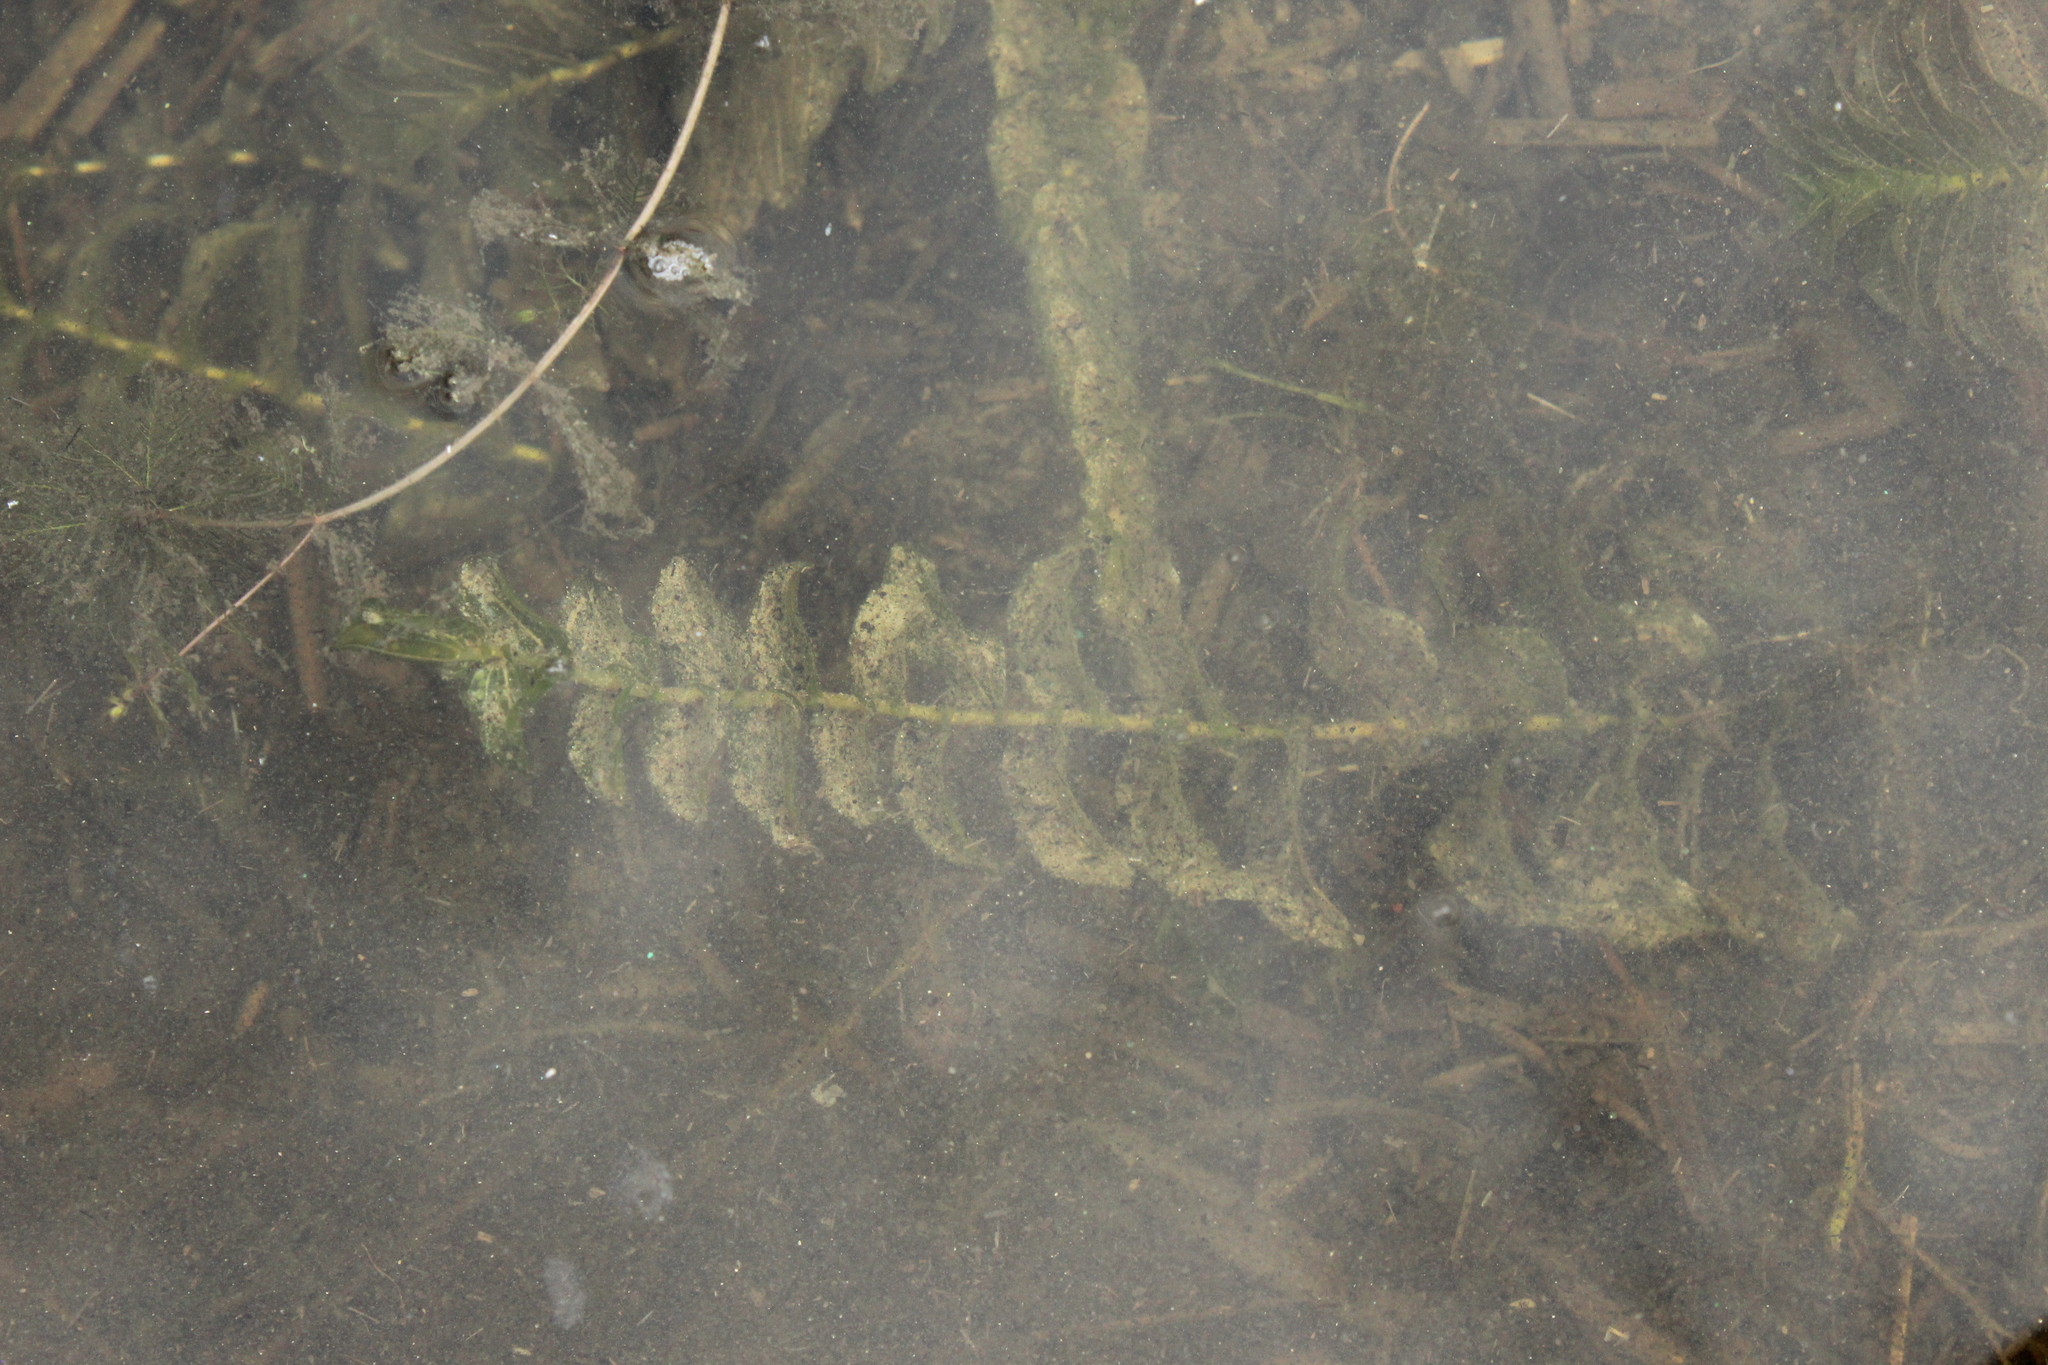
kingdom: Plantae
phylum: Tracheophyta
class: Liliopsida
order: Alismatales
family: Potamogetonaceae
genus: Potamogeton
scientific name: Potamogeton perfoliatus
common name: Perfoliate pondweed
